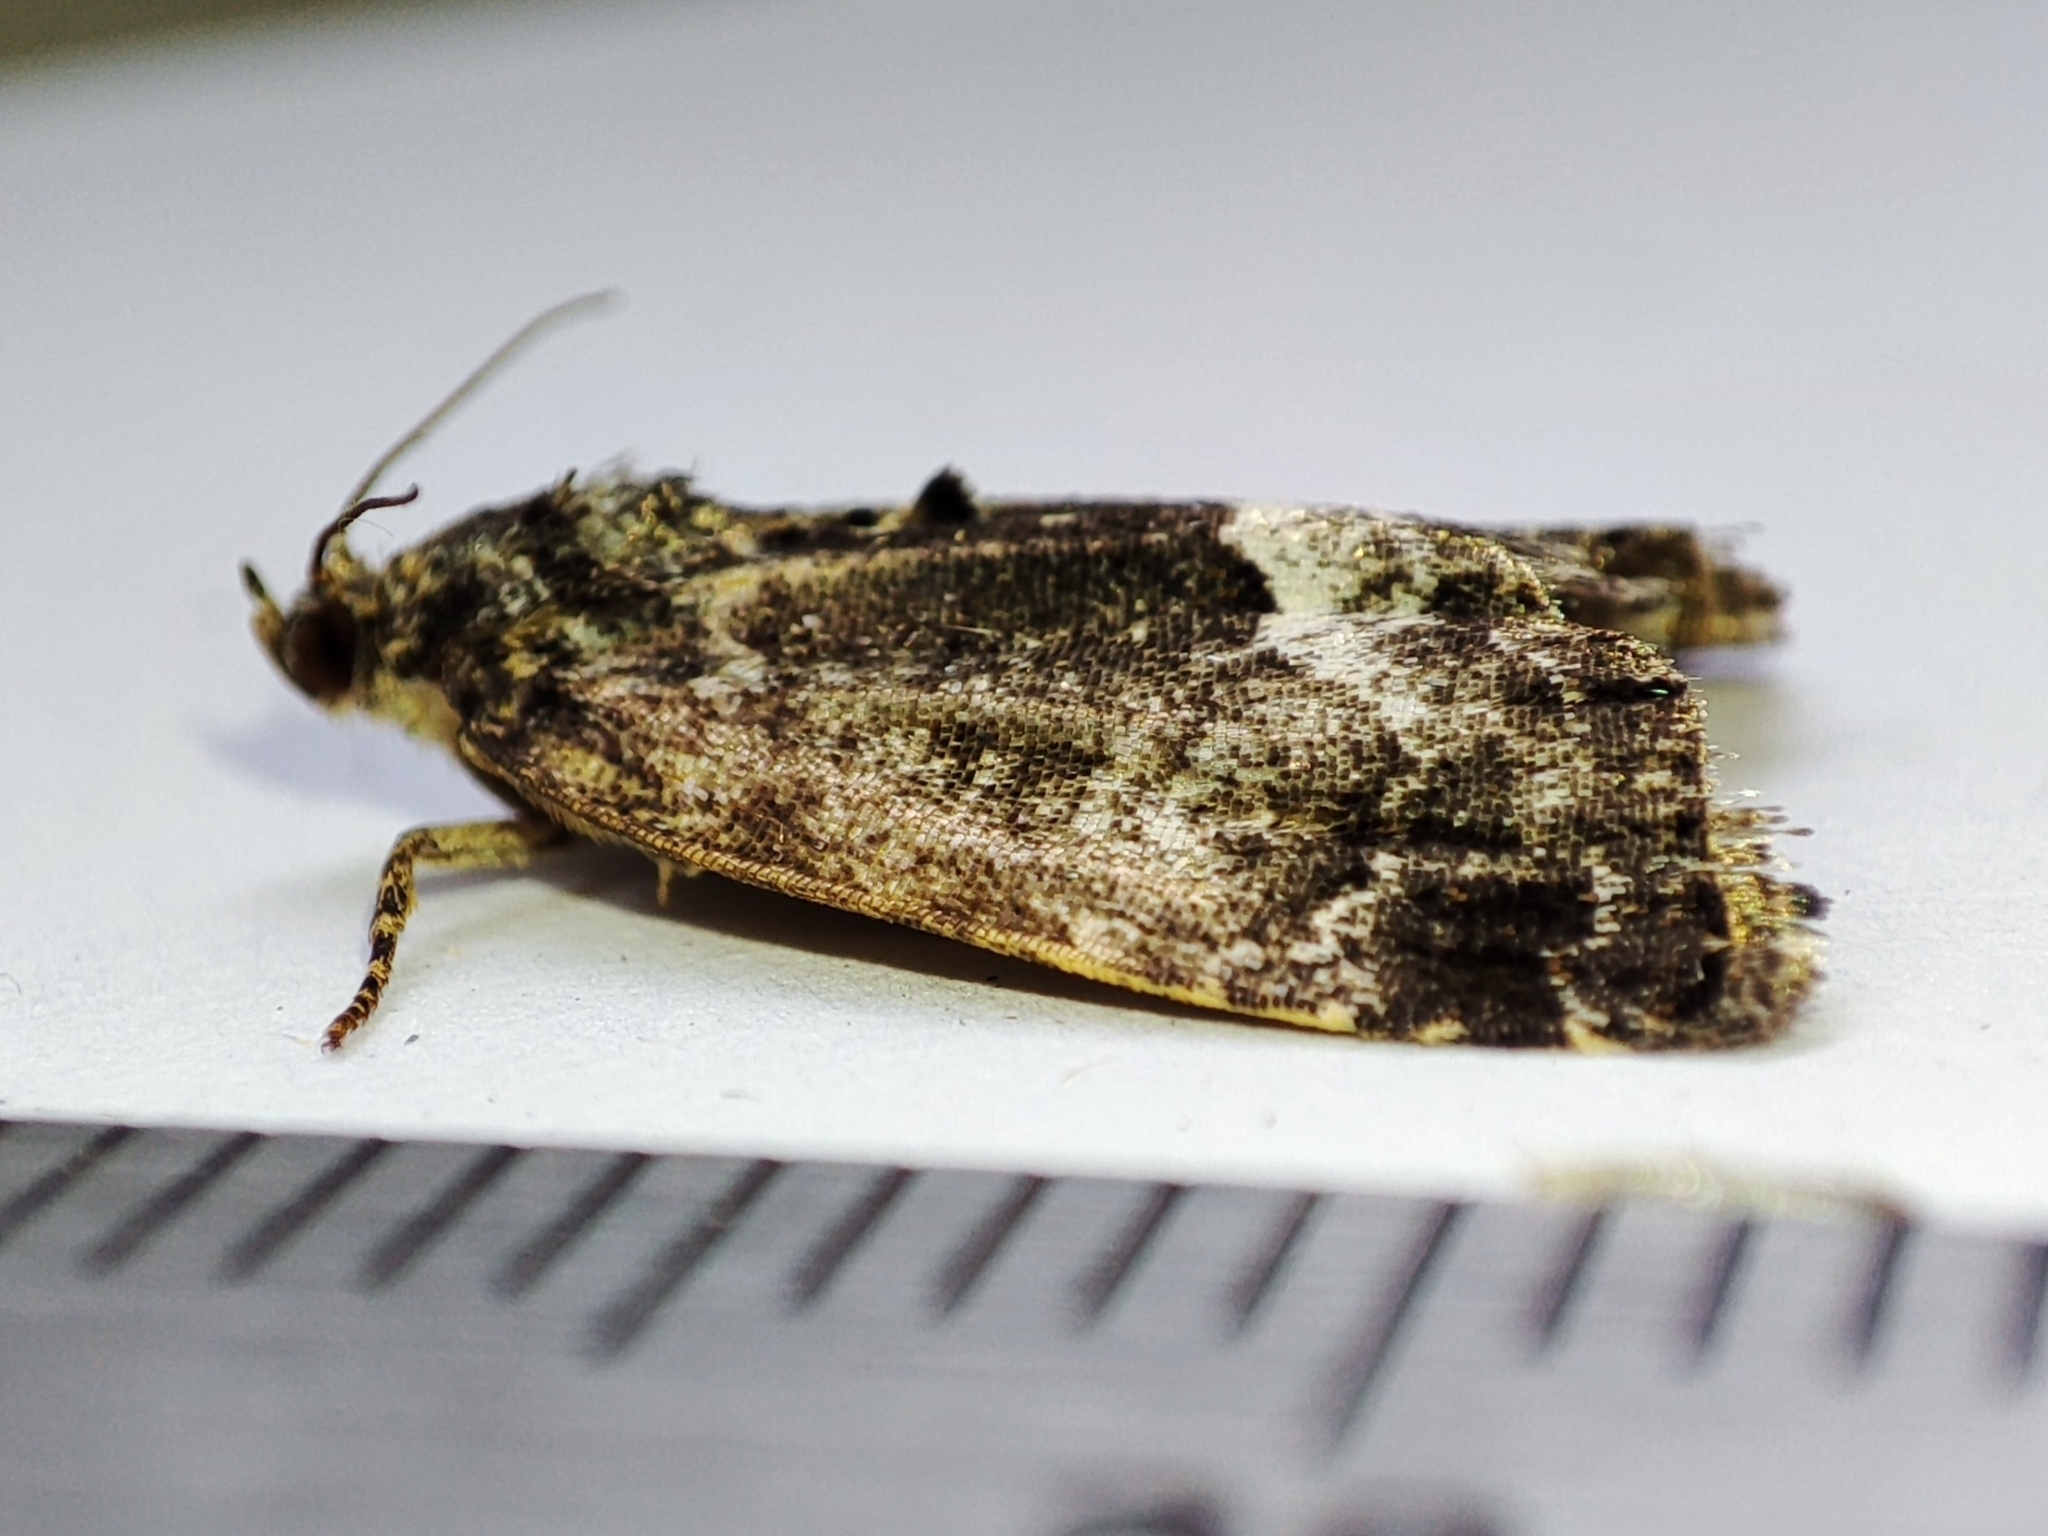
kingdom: Animalia
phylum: Arthropoda
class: Insecta
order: Lepidoptera
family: Noctuidae
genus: Deltote
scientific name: Deltote pygarga
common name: Marbled white spot
